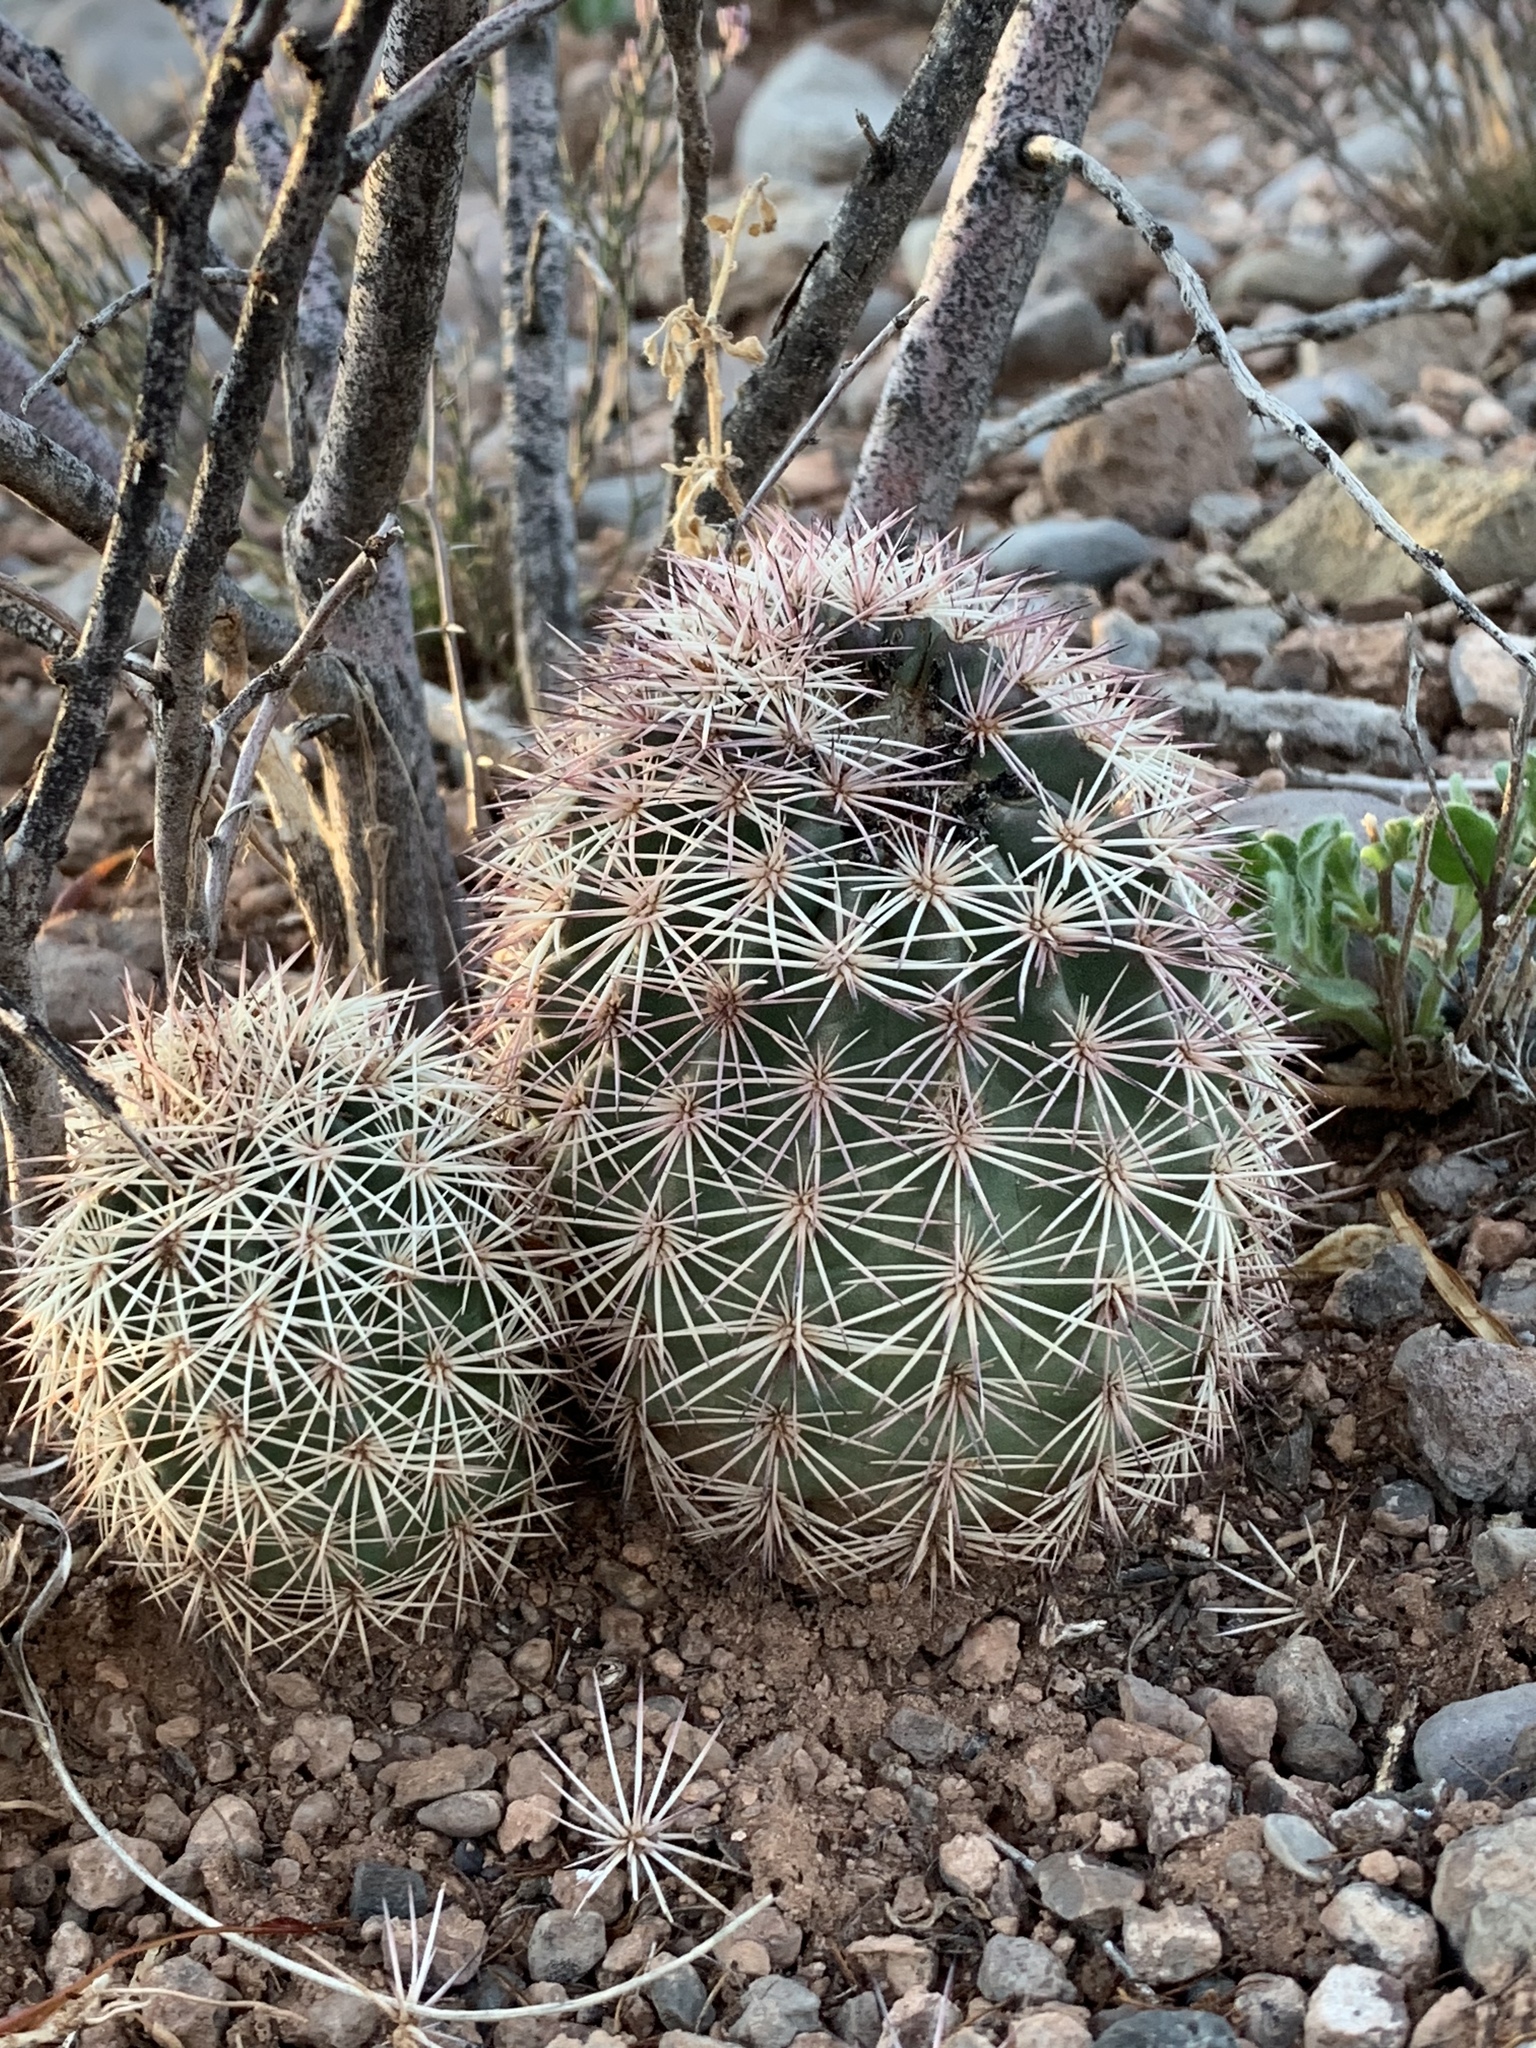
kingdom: Plantae
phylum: Tracheophyta
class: Magnoliopsida
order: Caryophyllales
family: Cactaceae
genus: Echinocereus
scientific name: Echinocereus dasyacanthus
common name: Spiny hedgehog cactus
